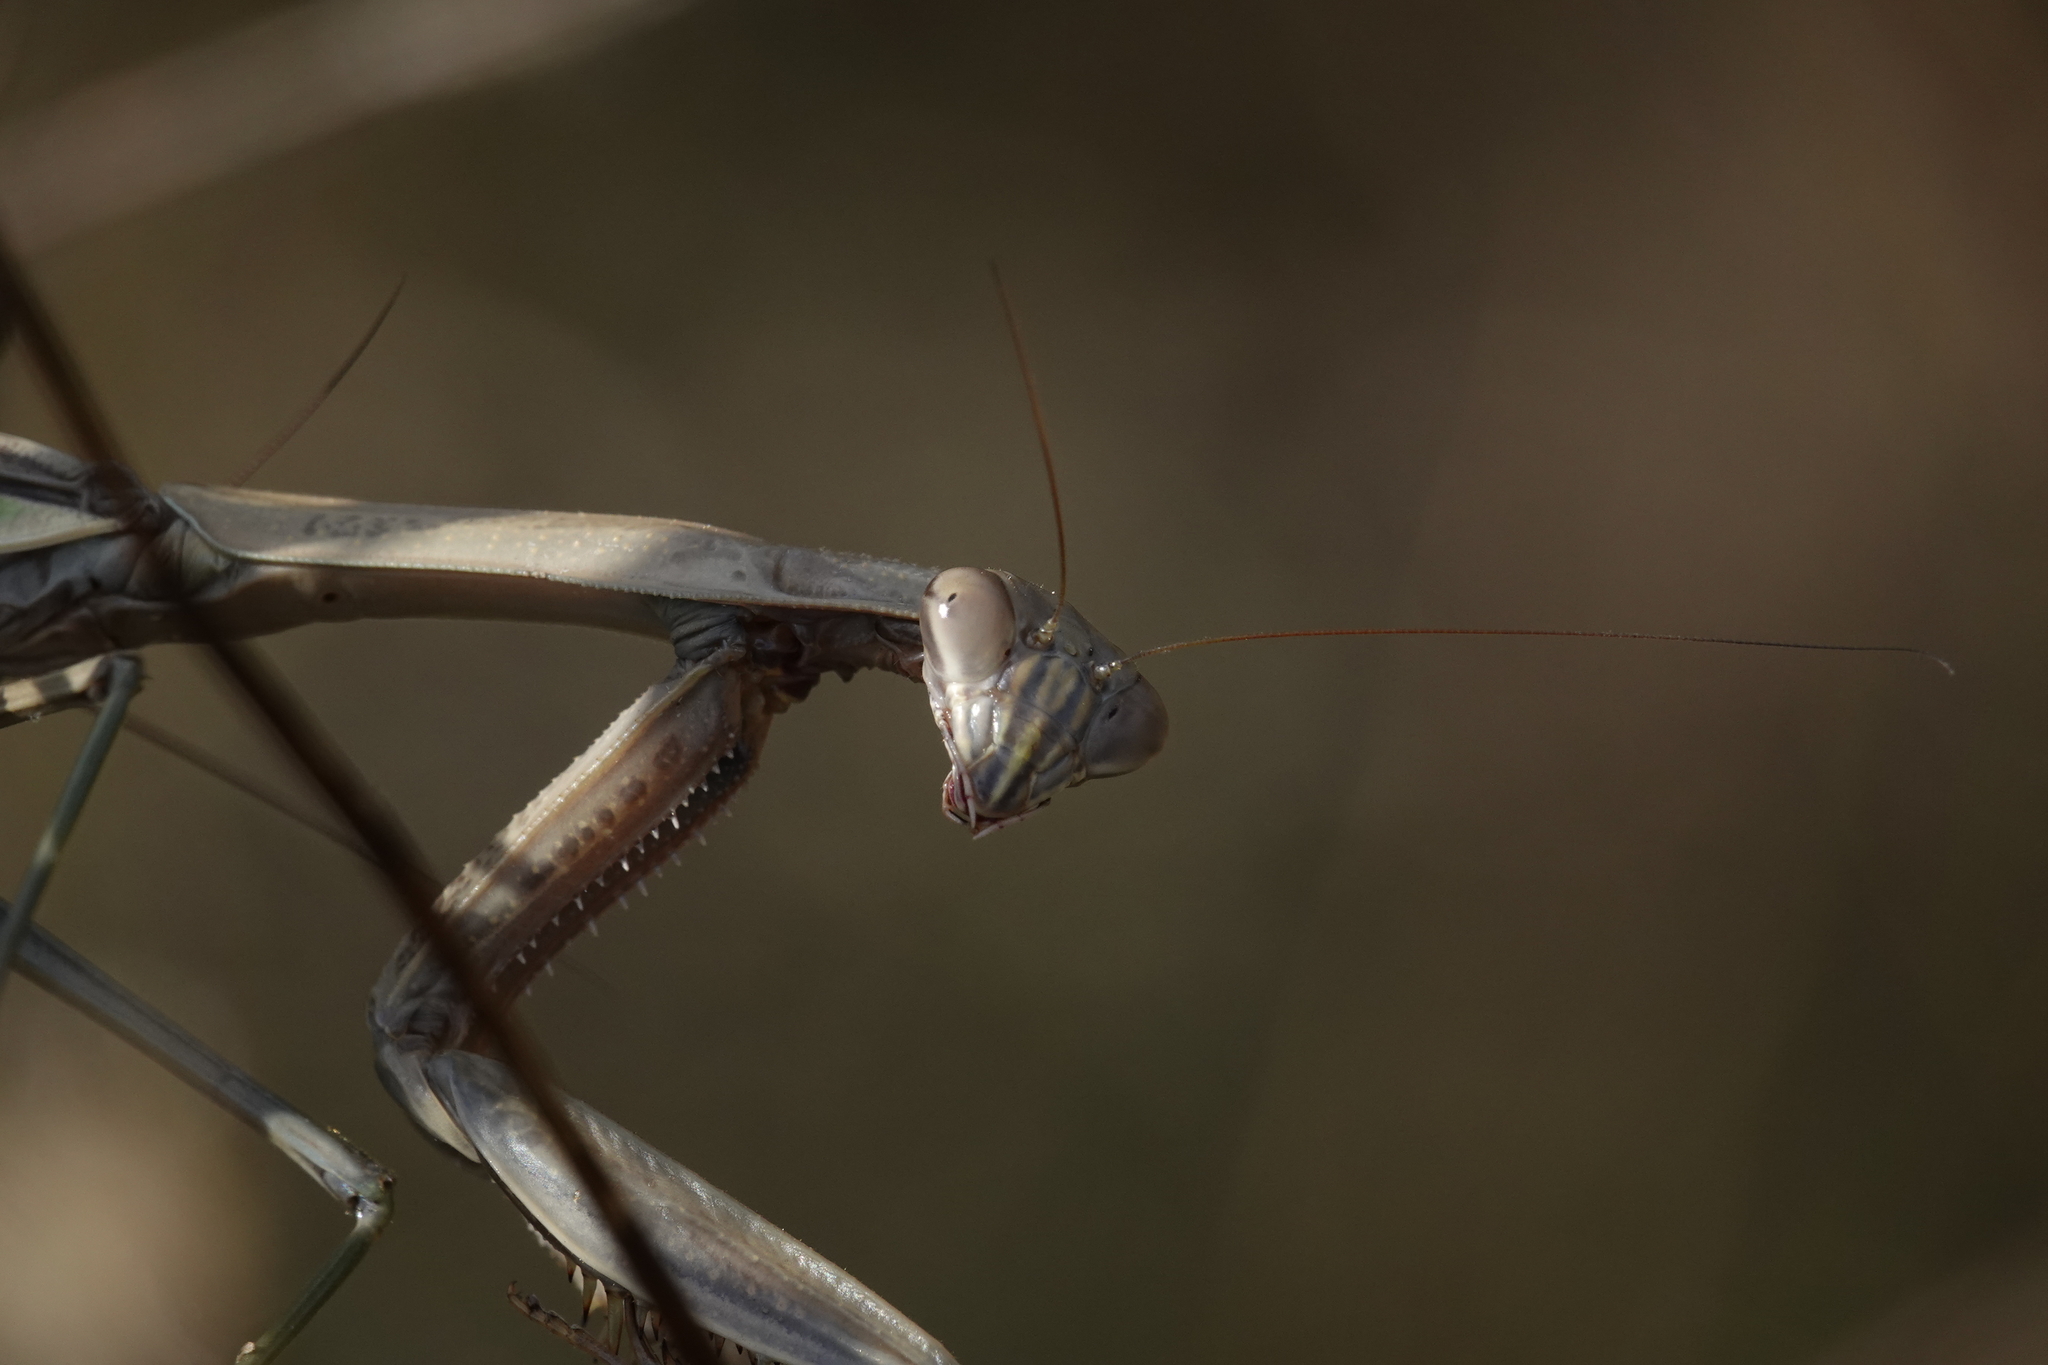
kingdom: Animalia
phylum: Arthropoda
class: Insecta
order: Mantodea
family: Mantidae
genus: Tenodera
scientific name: Tenodera sinensis
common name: Chinese mantis
